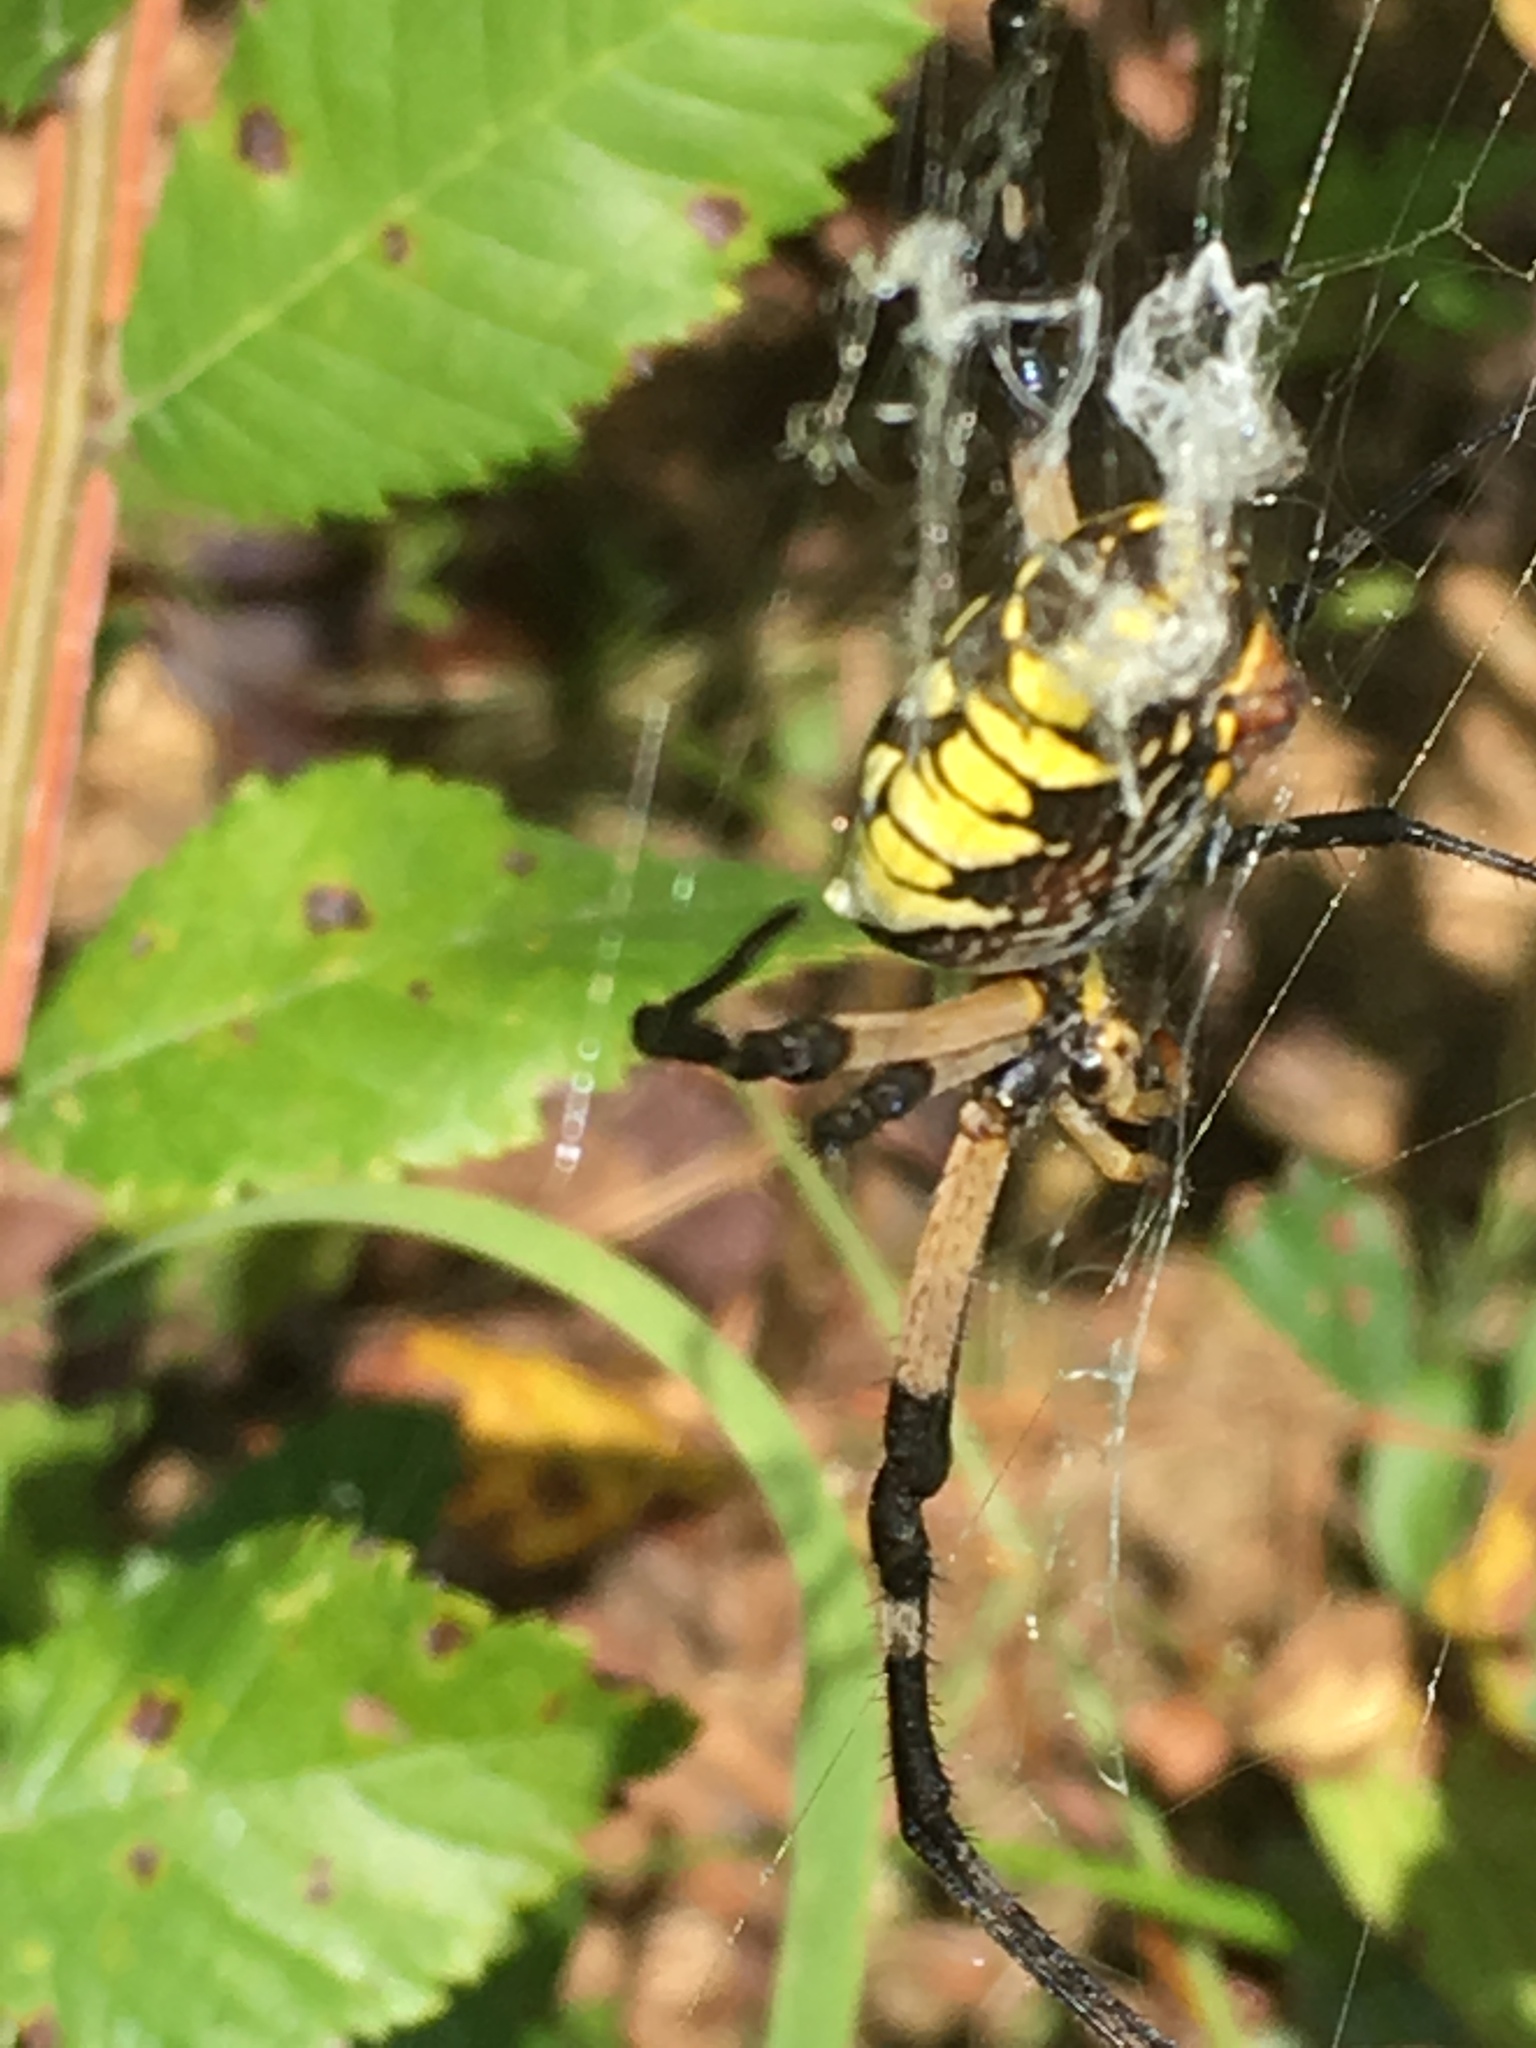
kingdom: Animalia
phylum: Arthropoda
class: Arachnida
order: Araneae
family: Araneidae
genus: Argiope
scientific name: Argiope aurantia
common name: Orb weavers
